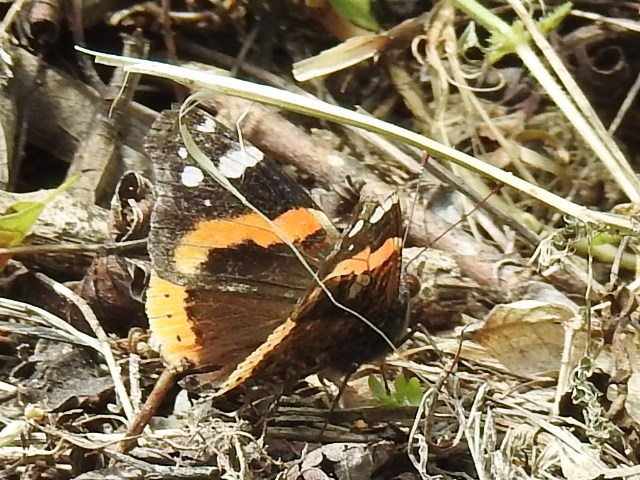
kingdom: Animalia
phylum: Arthropoda
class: Insecta
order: Lepidoptera
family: Nymphalidae
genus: Vanessa
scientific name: Vanessa atalanta
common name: Red admiral
